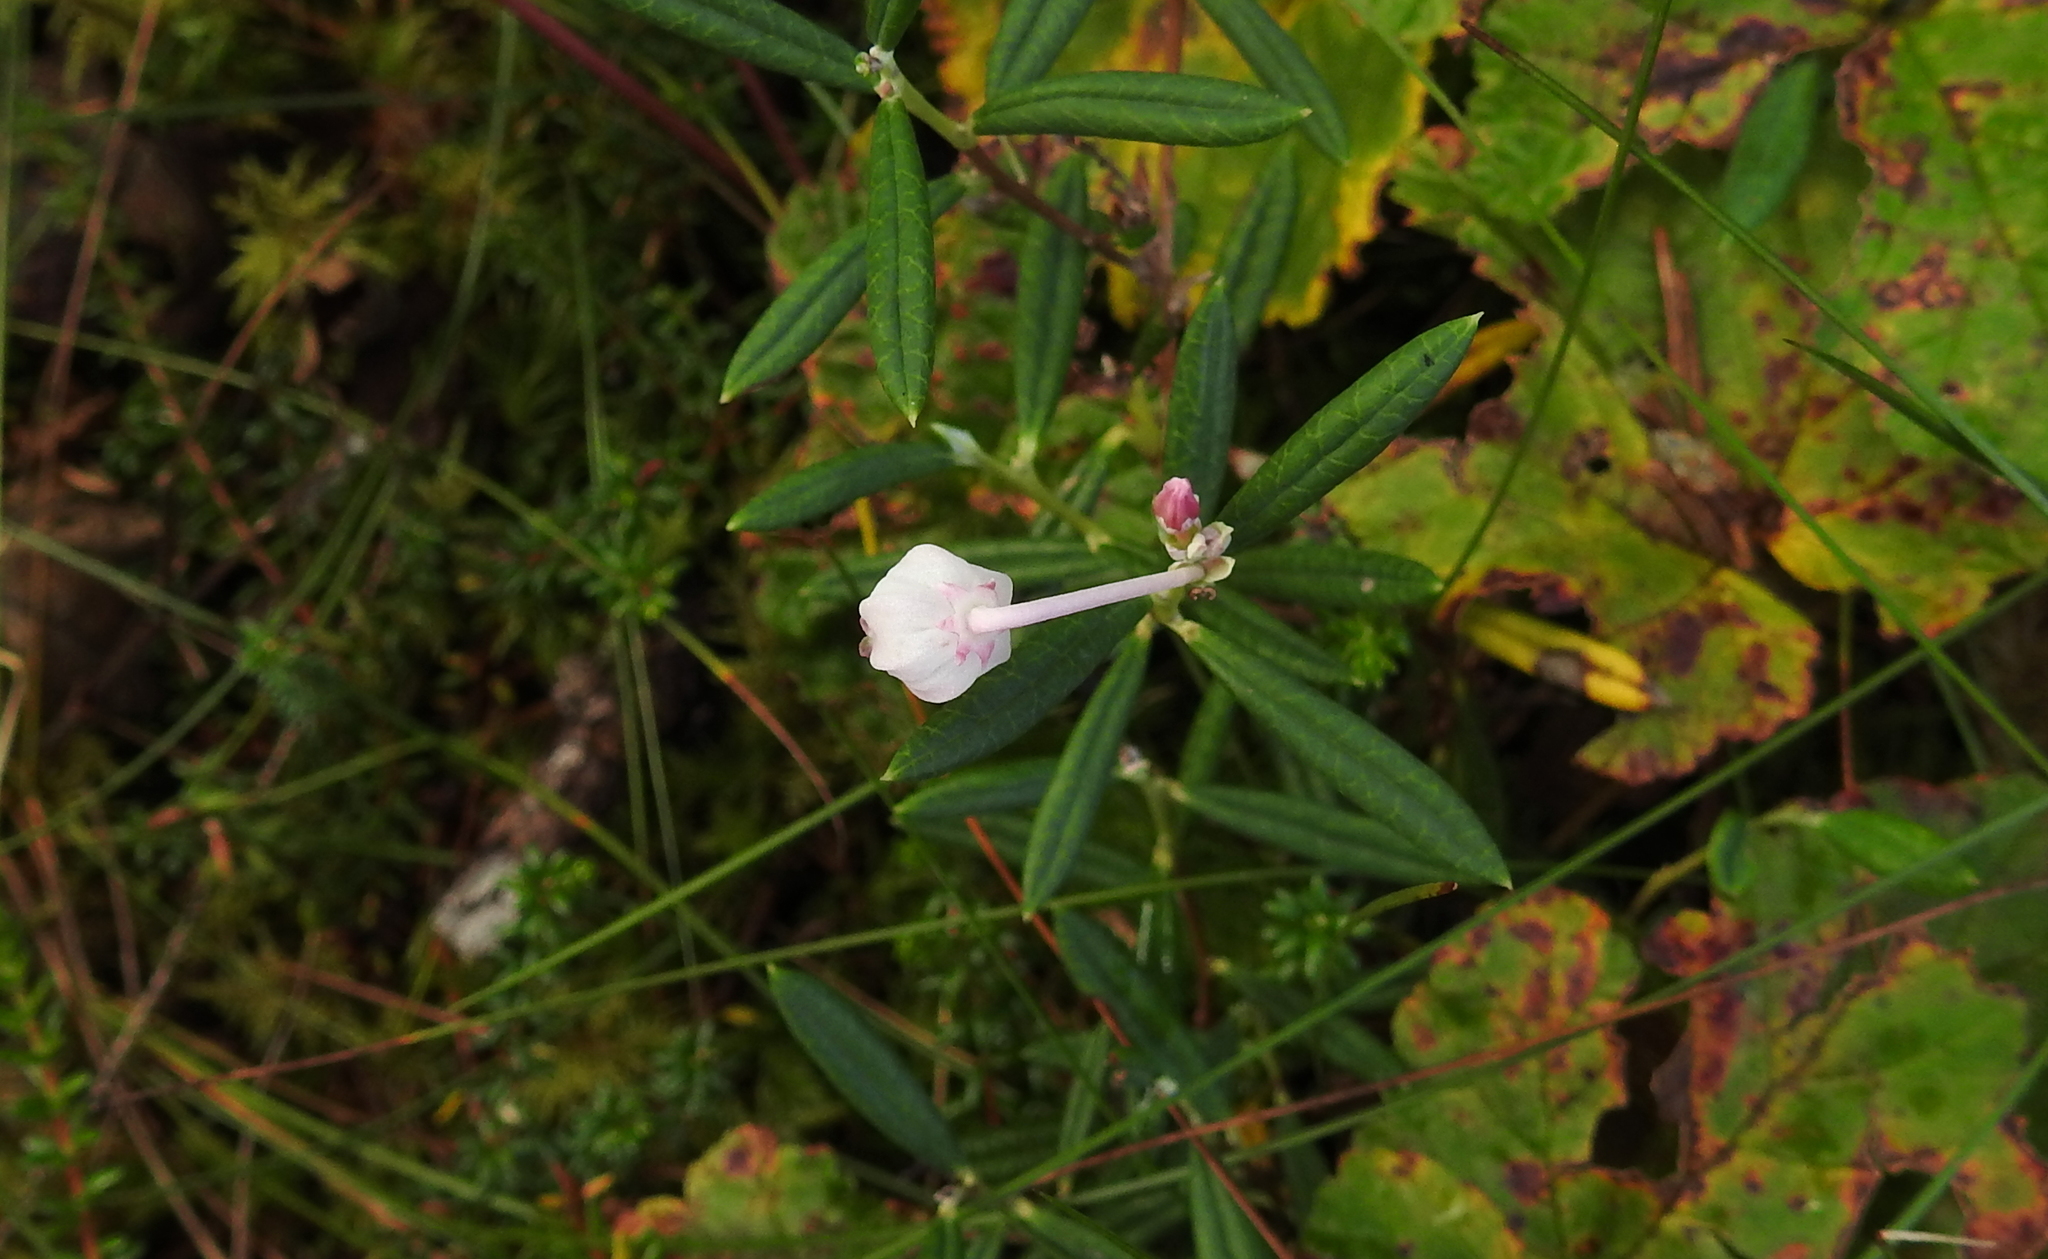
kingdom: Plantae
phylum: Tracheophyta
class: Magnoliopsida
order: Ericales
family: Ericaceae
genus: Andromeda
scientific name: Andromeda polifolia
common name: Bog-rosemary
